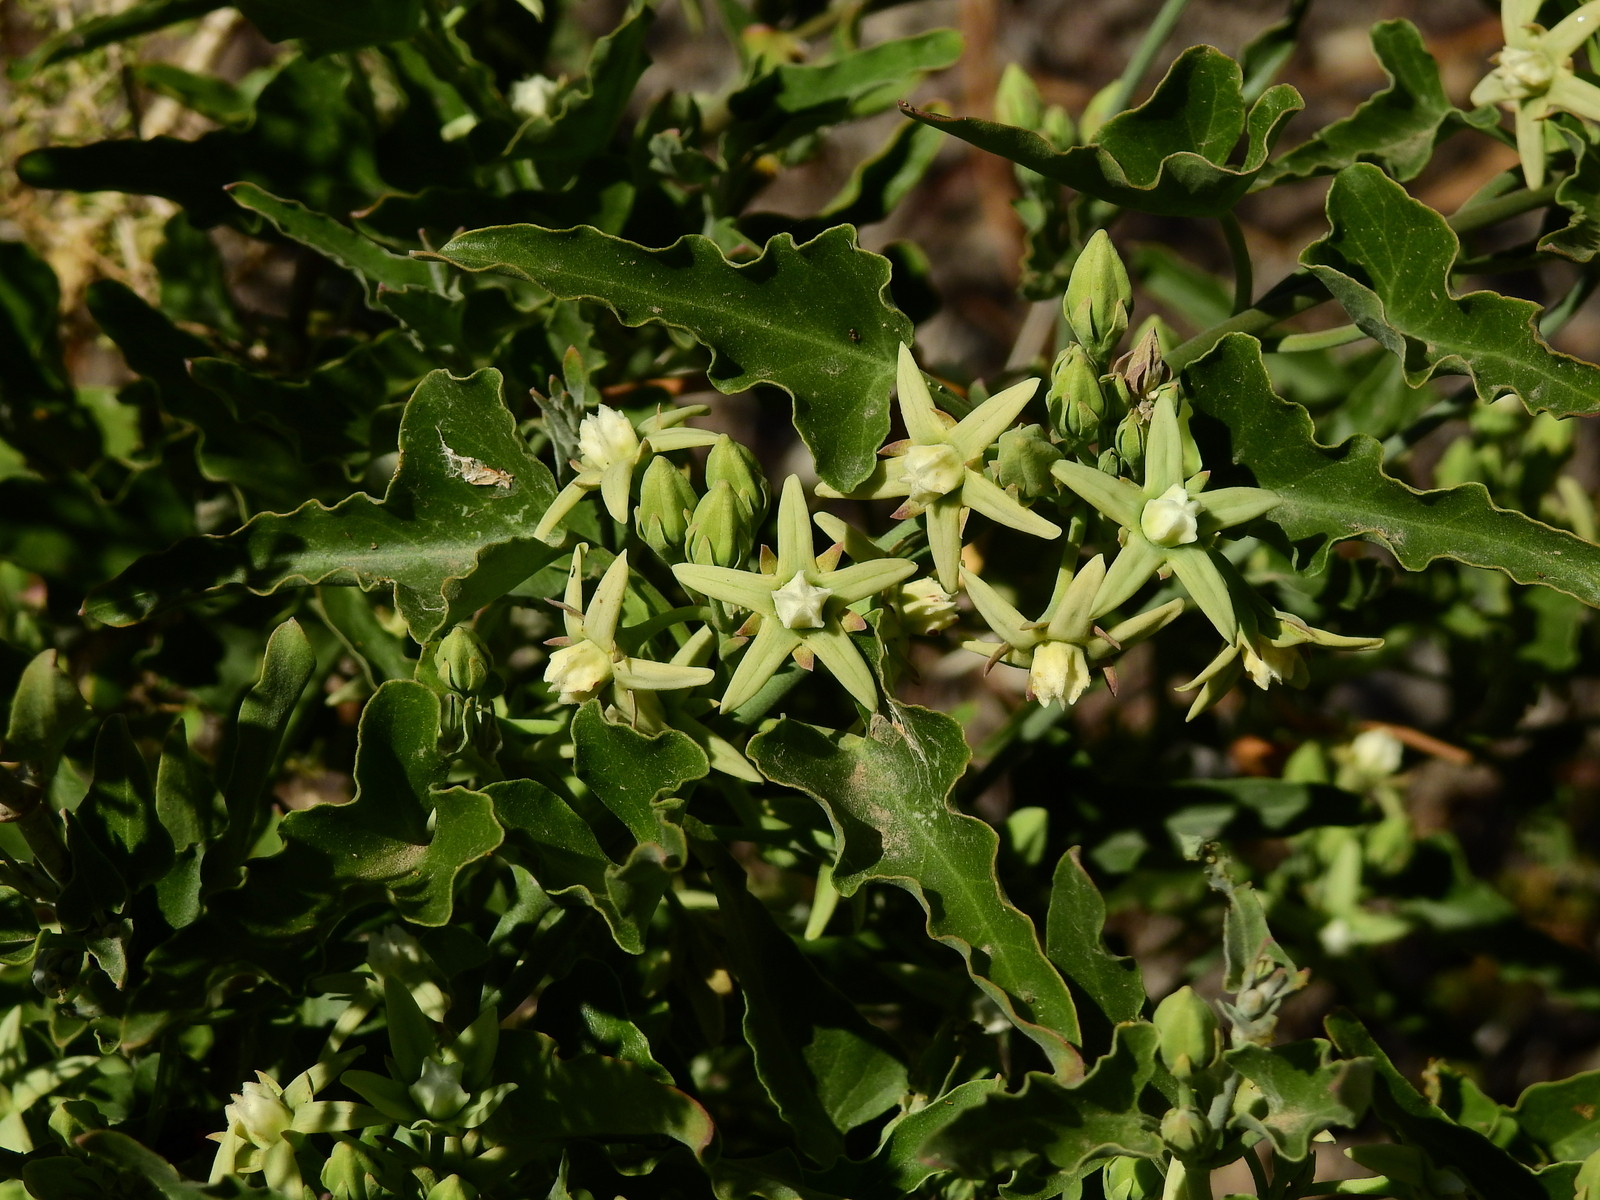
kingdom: Plantae
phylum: Tracheophyta
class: Magnoliopsida
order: Gentianales
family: Apocynaceae
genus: Araujia
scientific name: Araujia odorata
